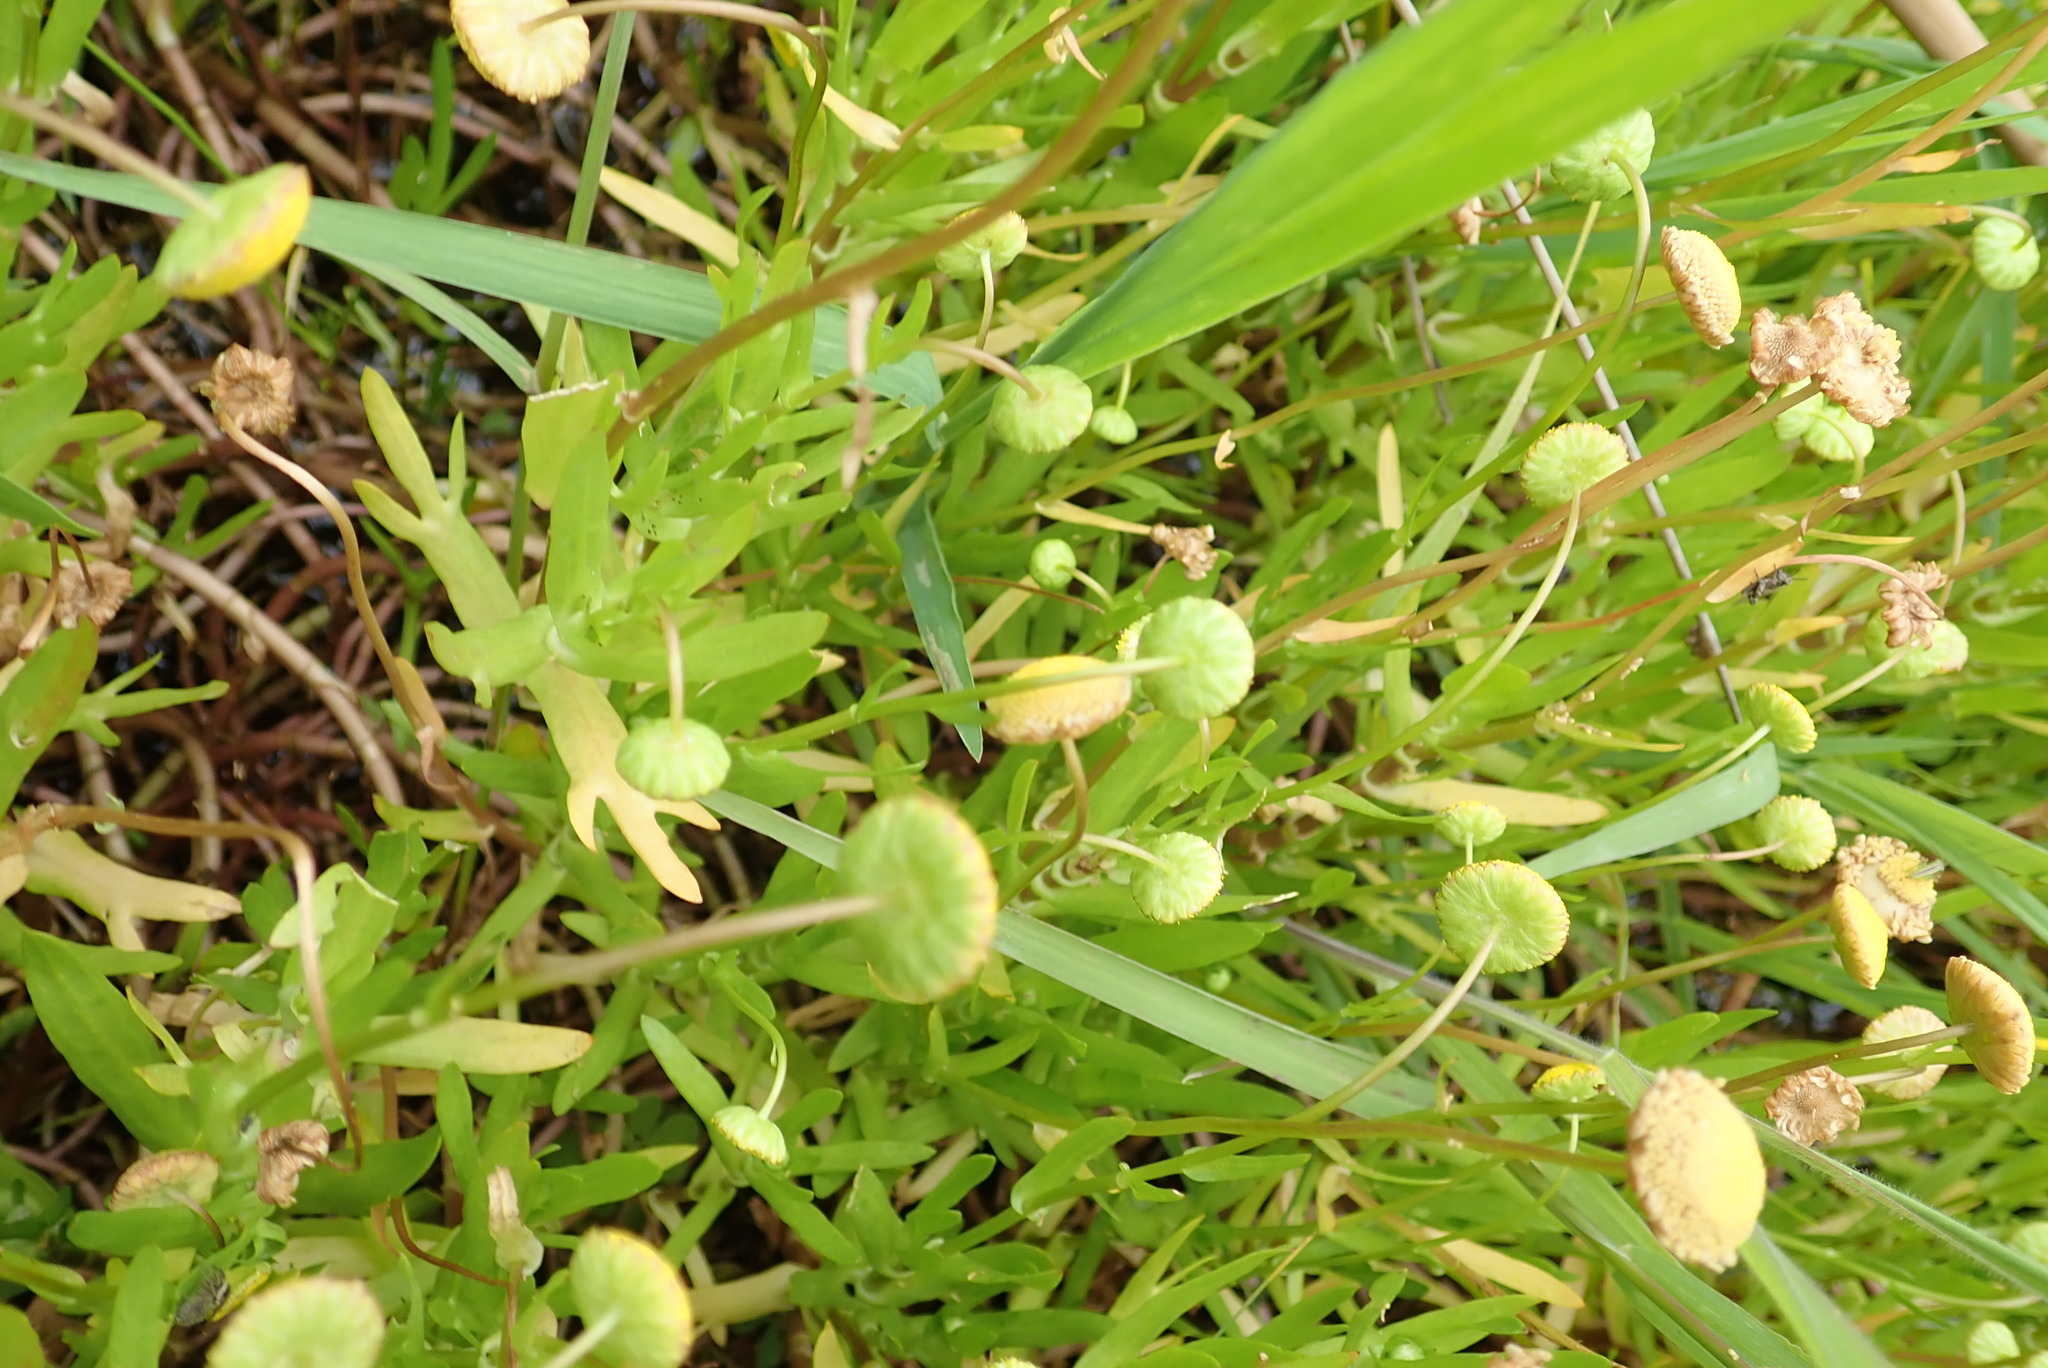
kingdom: Plantae
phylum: Tracheophyta
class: Magnoliopsida
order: Asterales
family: Asteraceae
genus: Cotula
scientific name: Cotula coronopifolia
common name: Buttonweed
